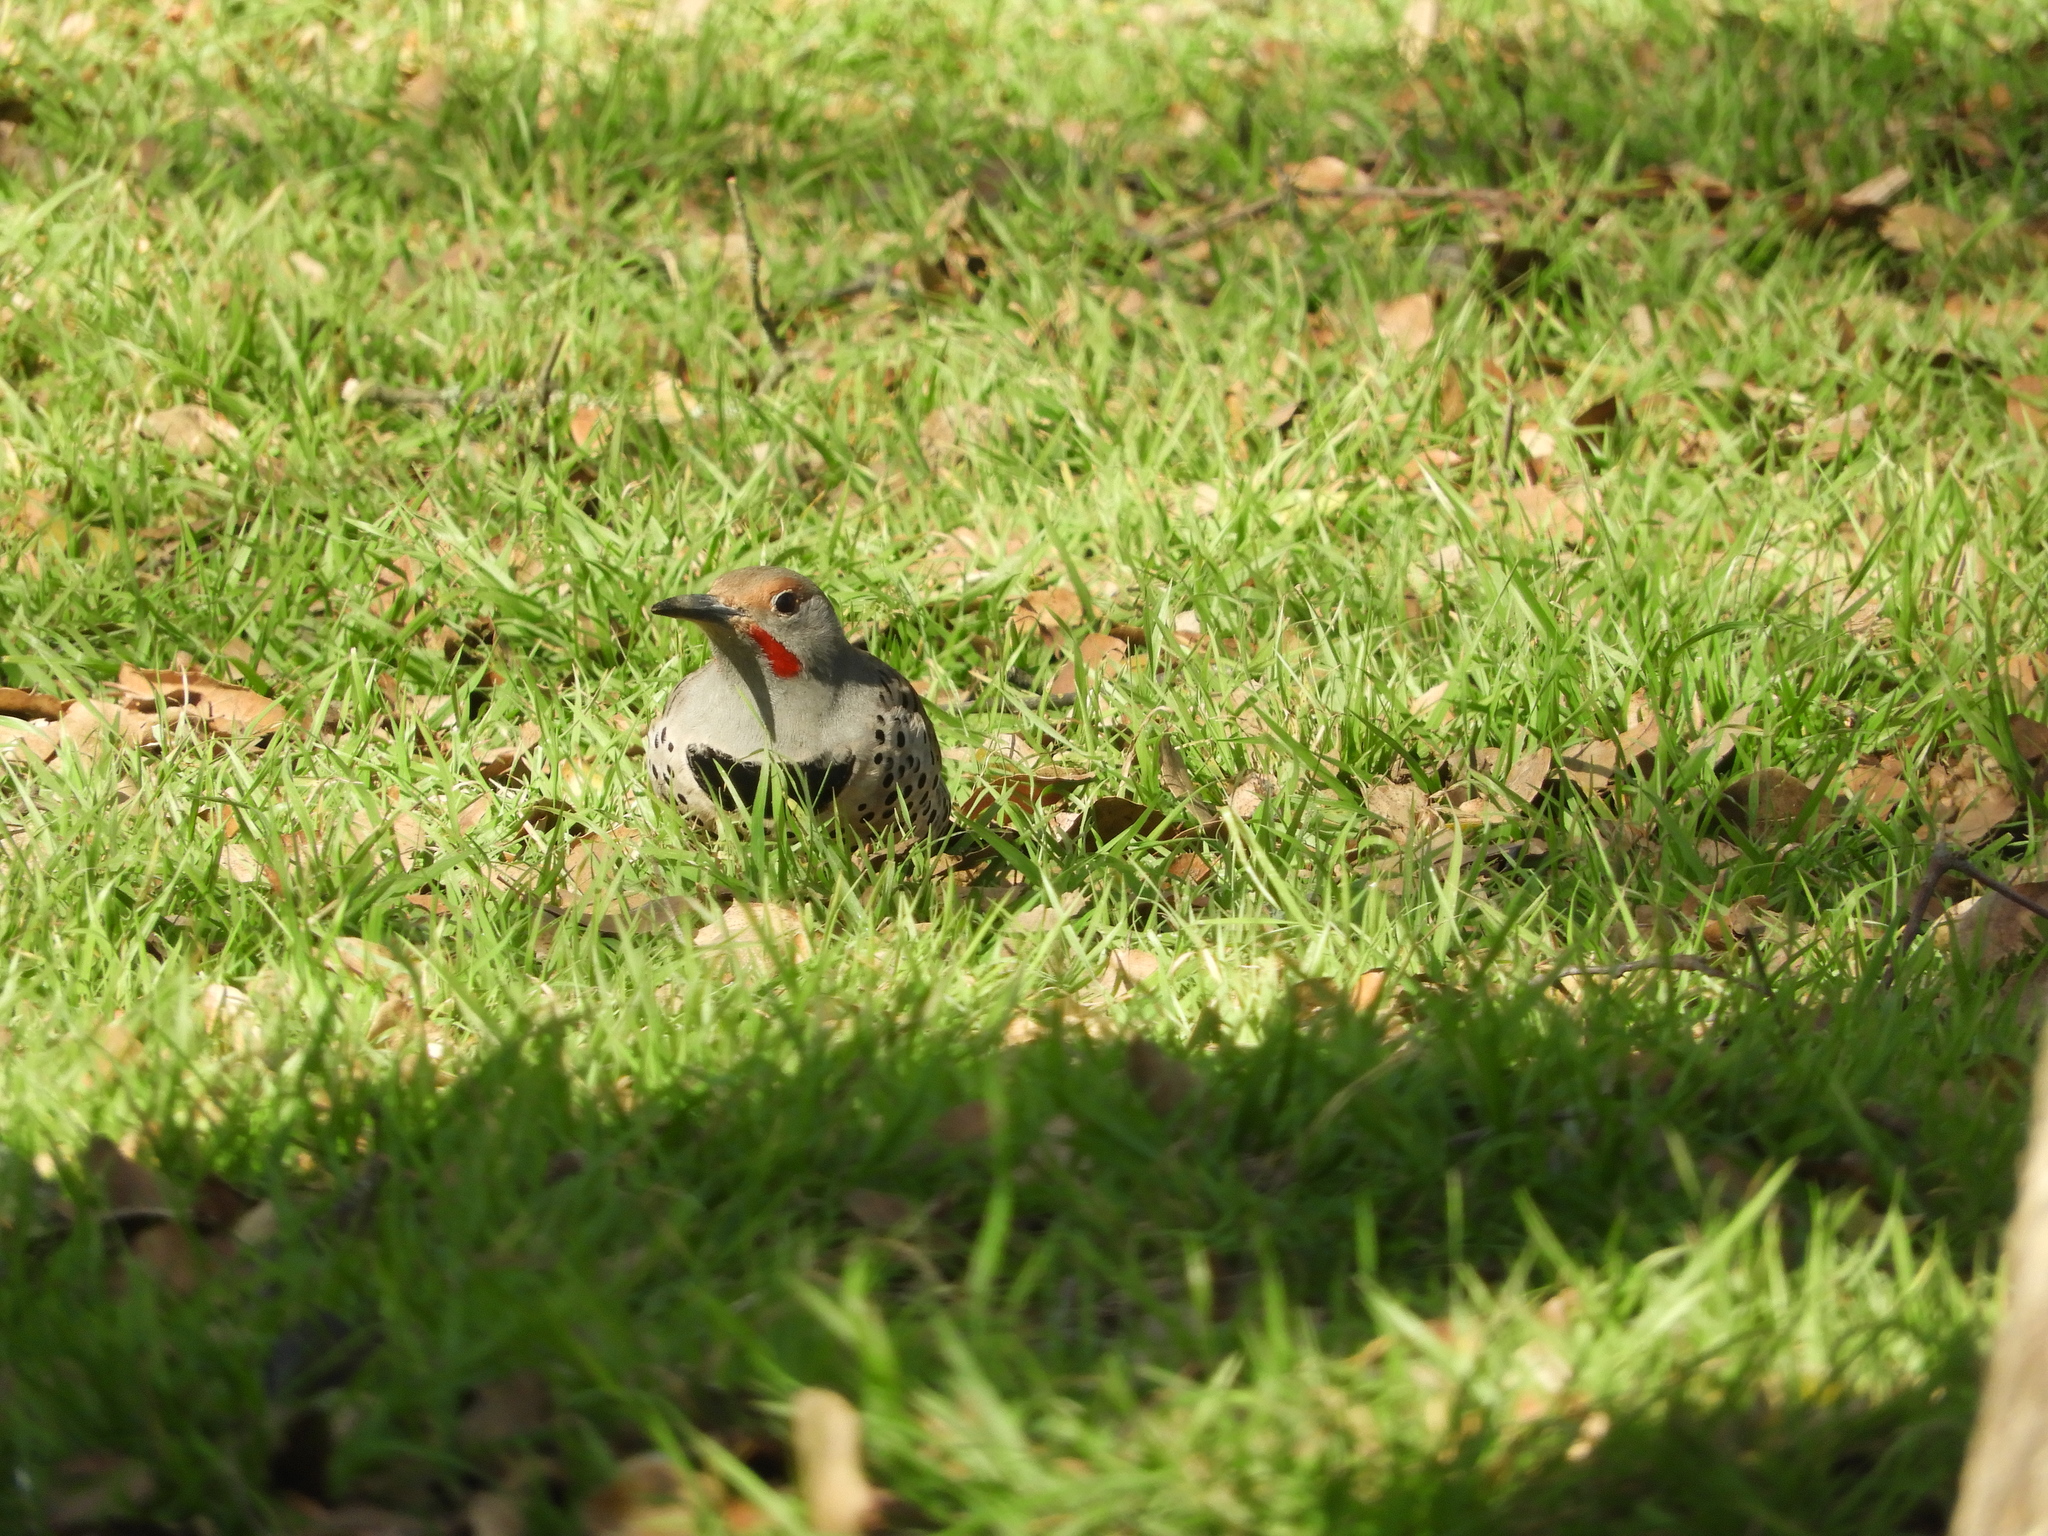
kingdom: Animalia
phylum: Chordata
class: Aves
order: Piciformes
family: Picidae
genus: Colaptes
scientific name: Colaptes auratus
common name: Northern flicker
